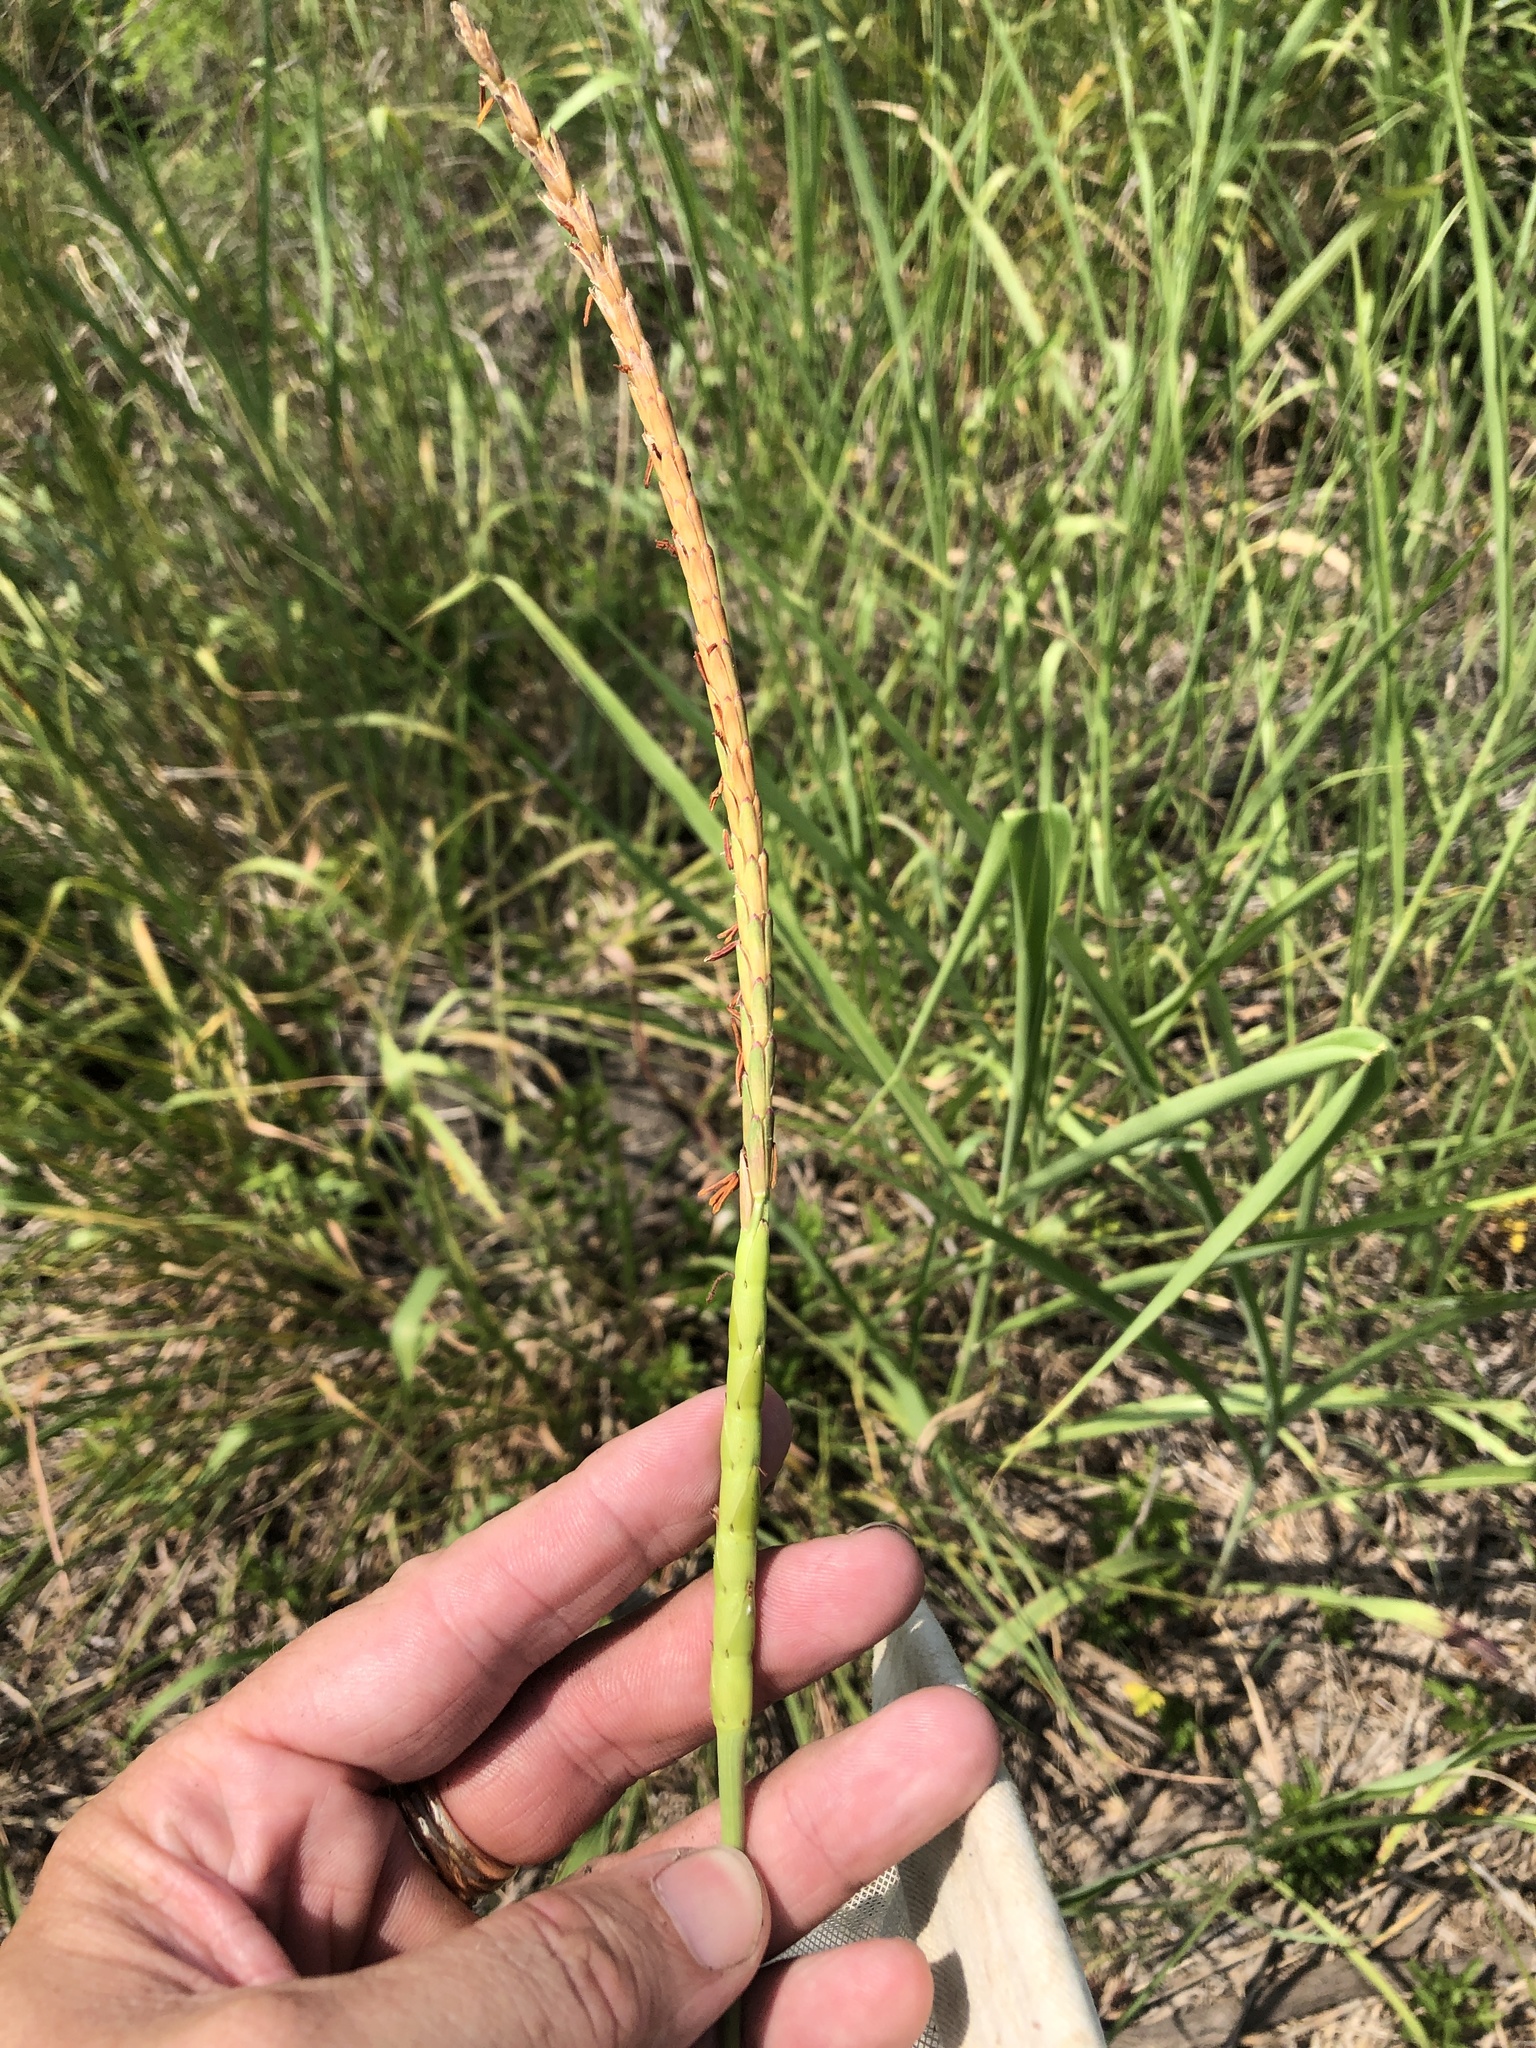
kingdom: Plantae
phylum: Tracheophyta
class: Liliopsida
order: Poales
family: Poaceae
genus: Tripsacum
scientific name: Tripsacum dactyloides
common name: Buffalo-grass
